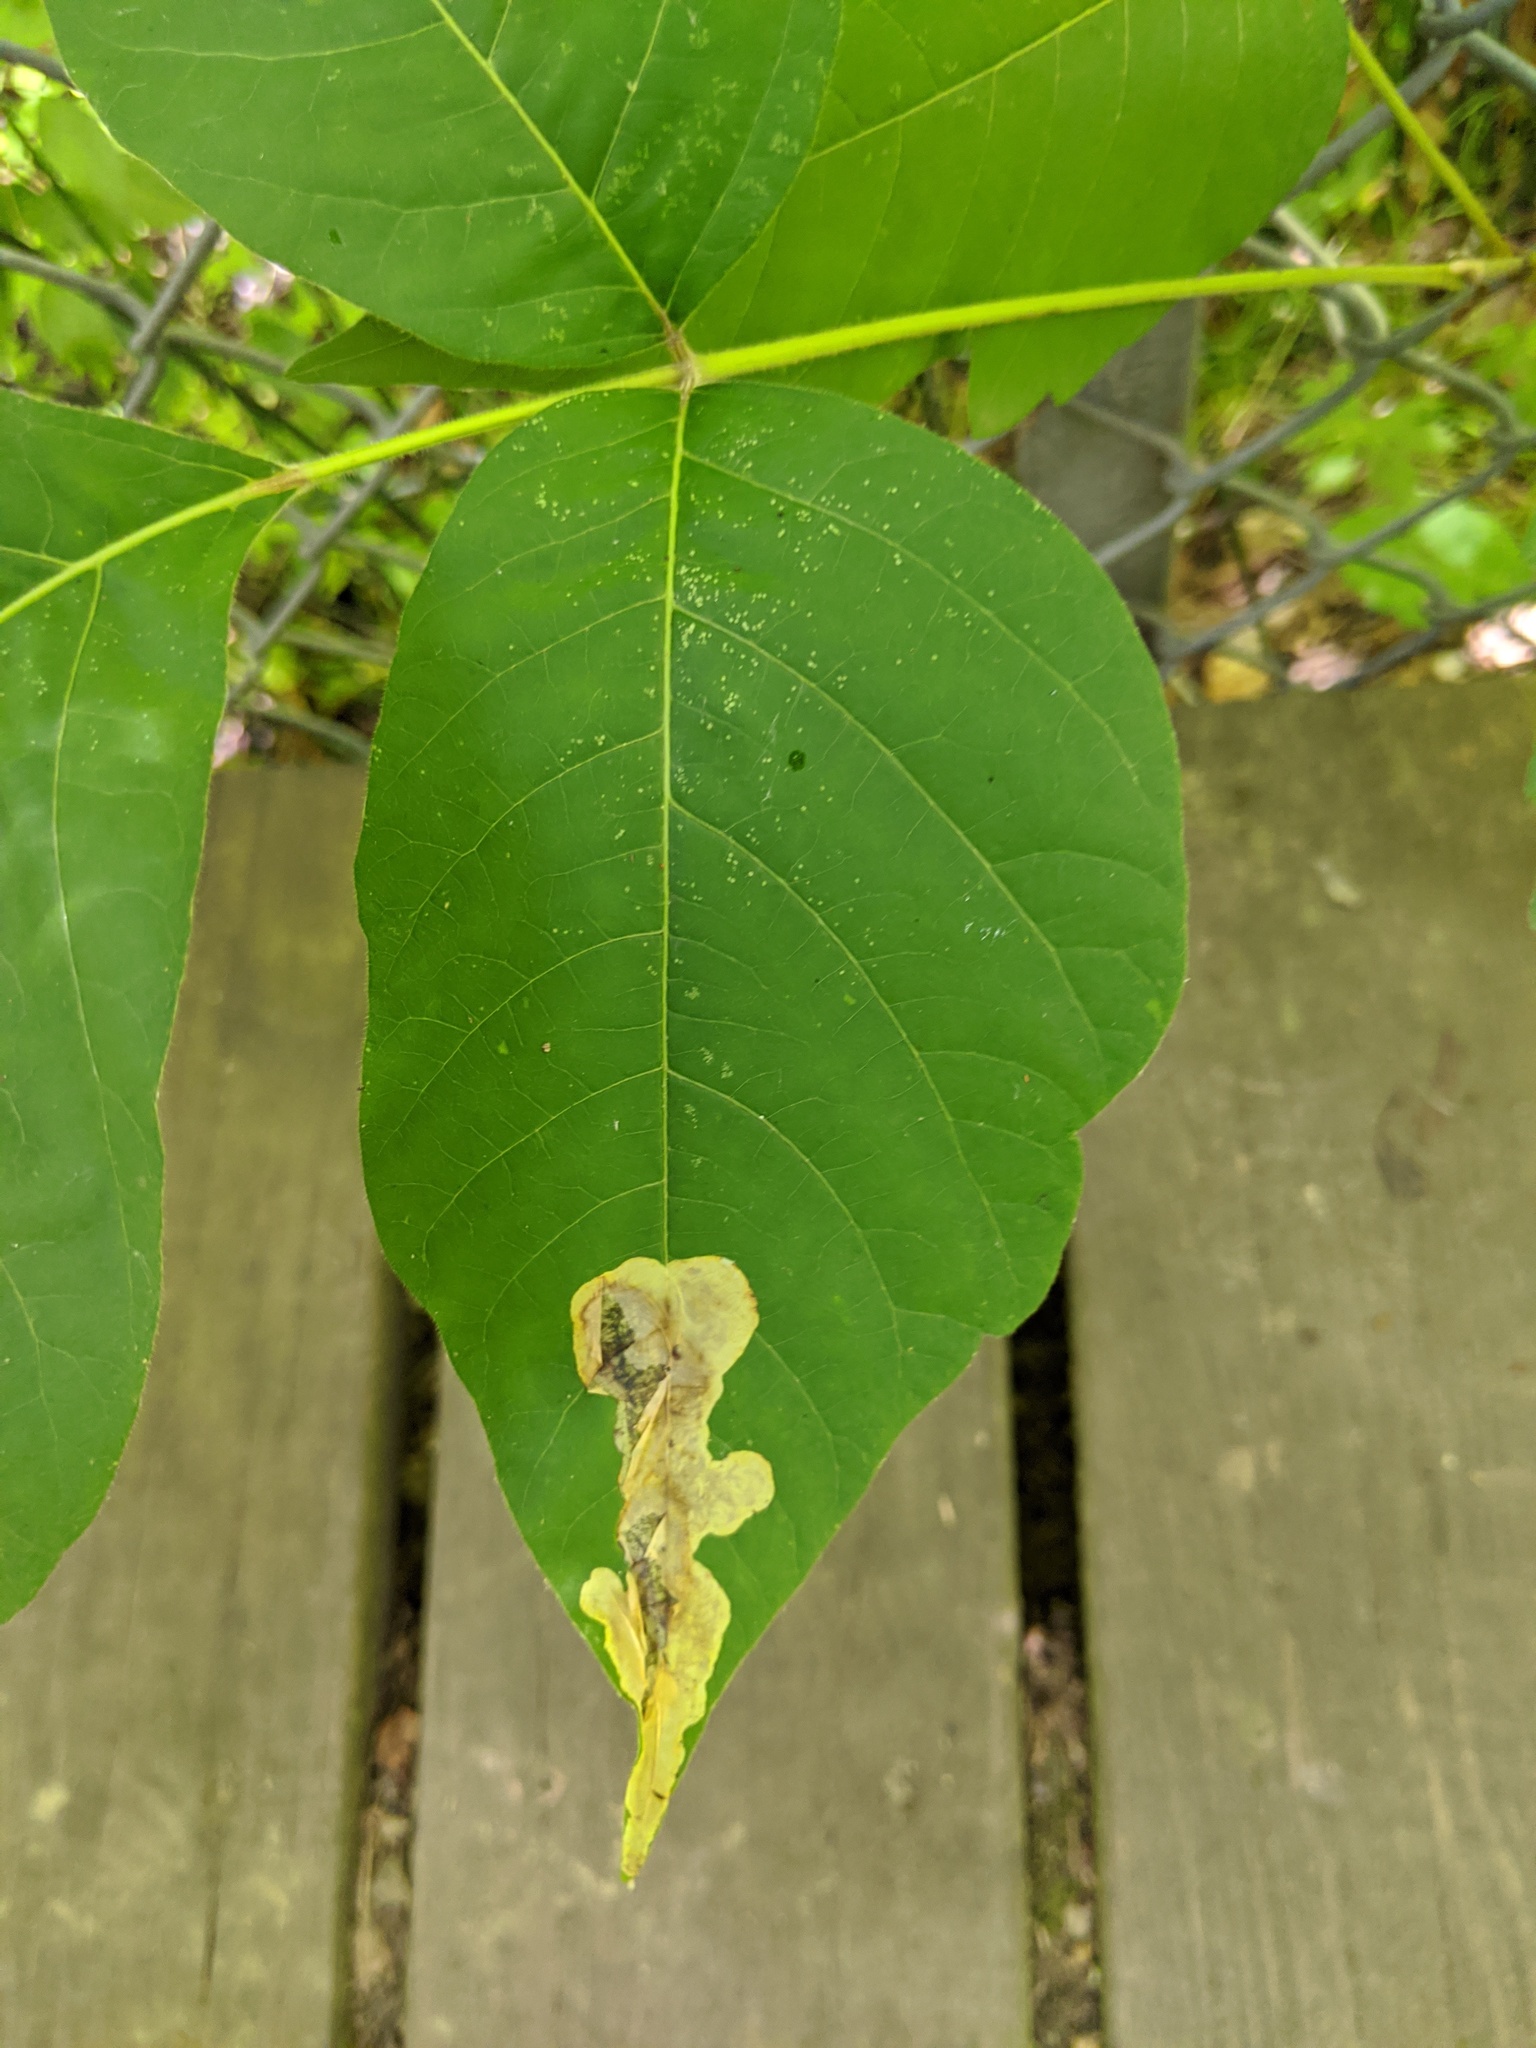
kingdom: Animalia
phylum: Arthropoda
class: Insecta
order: Lepidoptera
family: Gracillariidae
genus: Cameraria
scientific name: Cameraria guttifinitella
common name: Poison ivy leaf-miner moth
